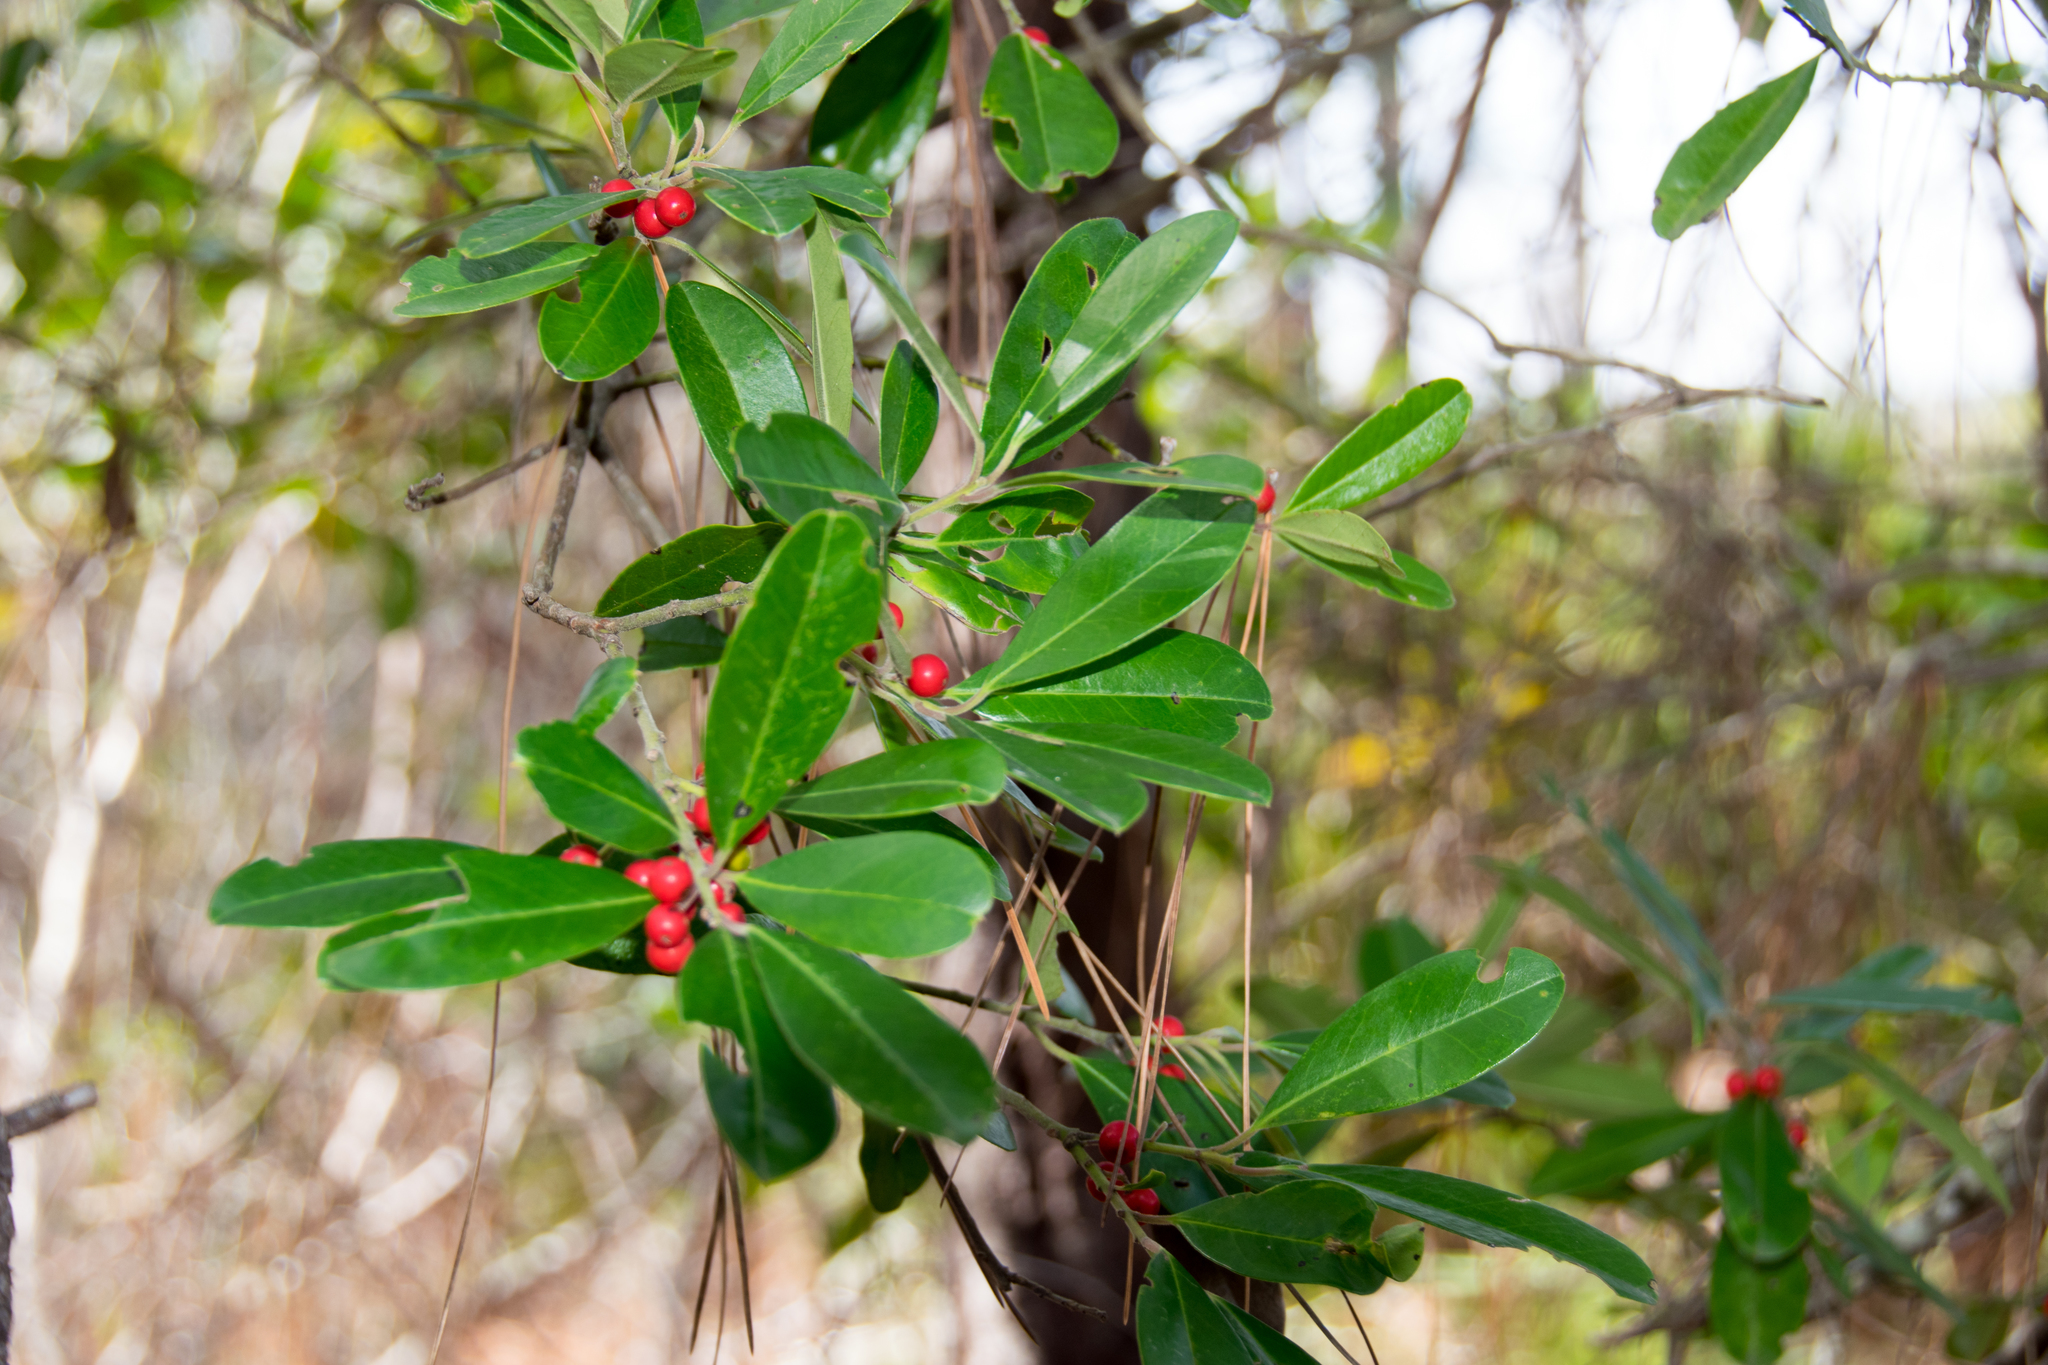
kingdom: Plantae
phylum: Tracheophyta
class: Magnoliopsida
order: Aquifoliales
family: Aquifoliaceae
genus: Ilex
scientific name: Ilex cassine
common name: Dahoon
